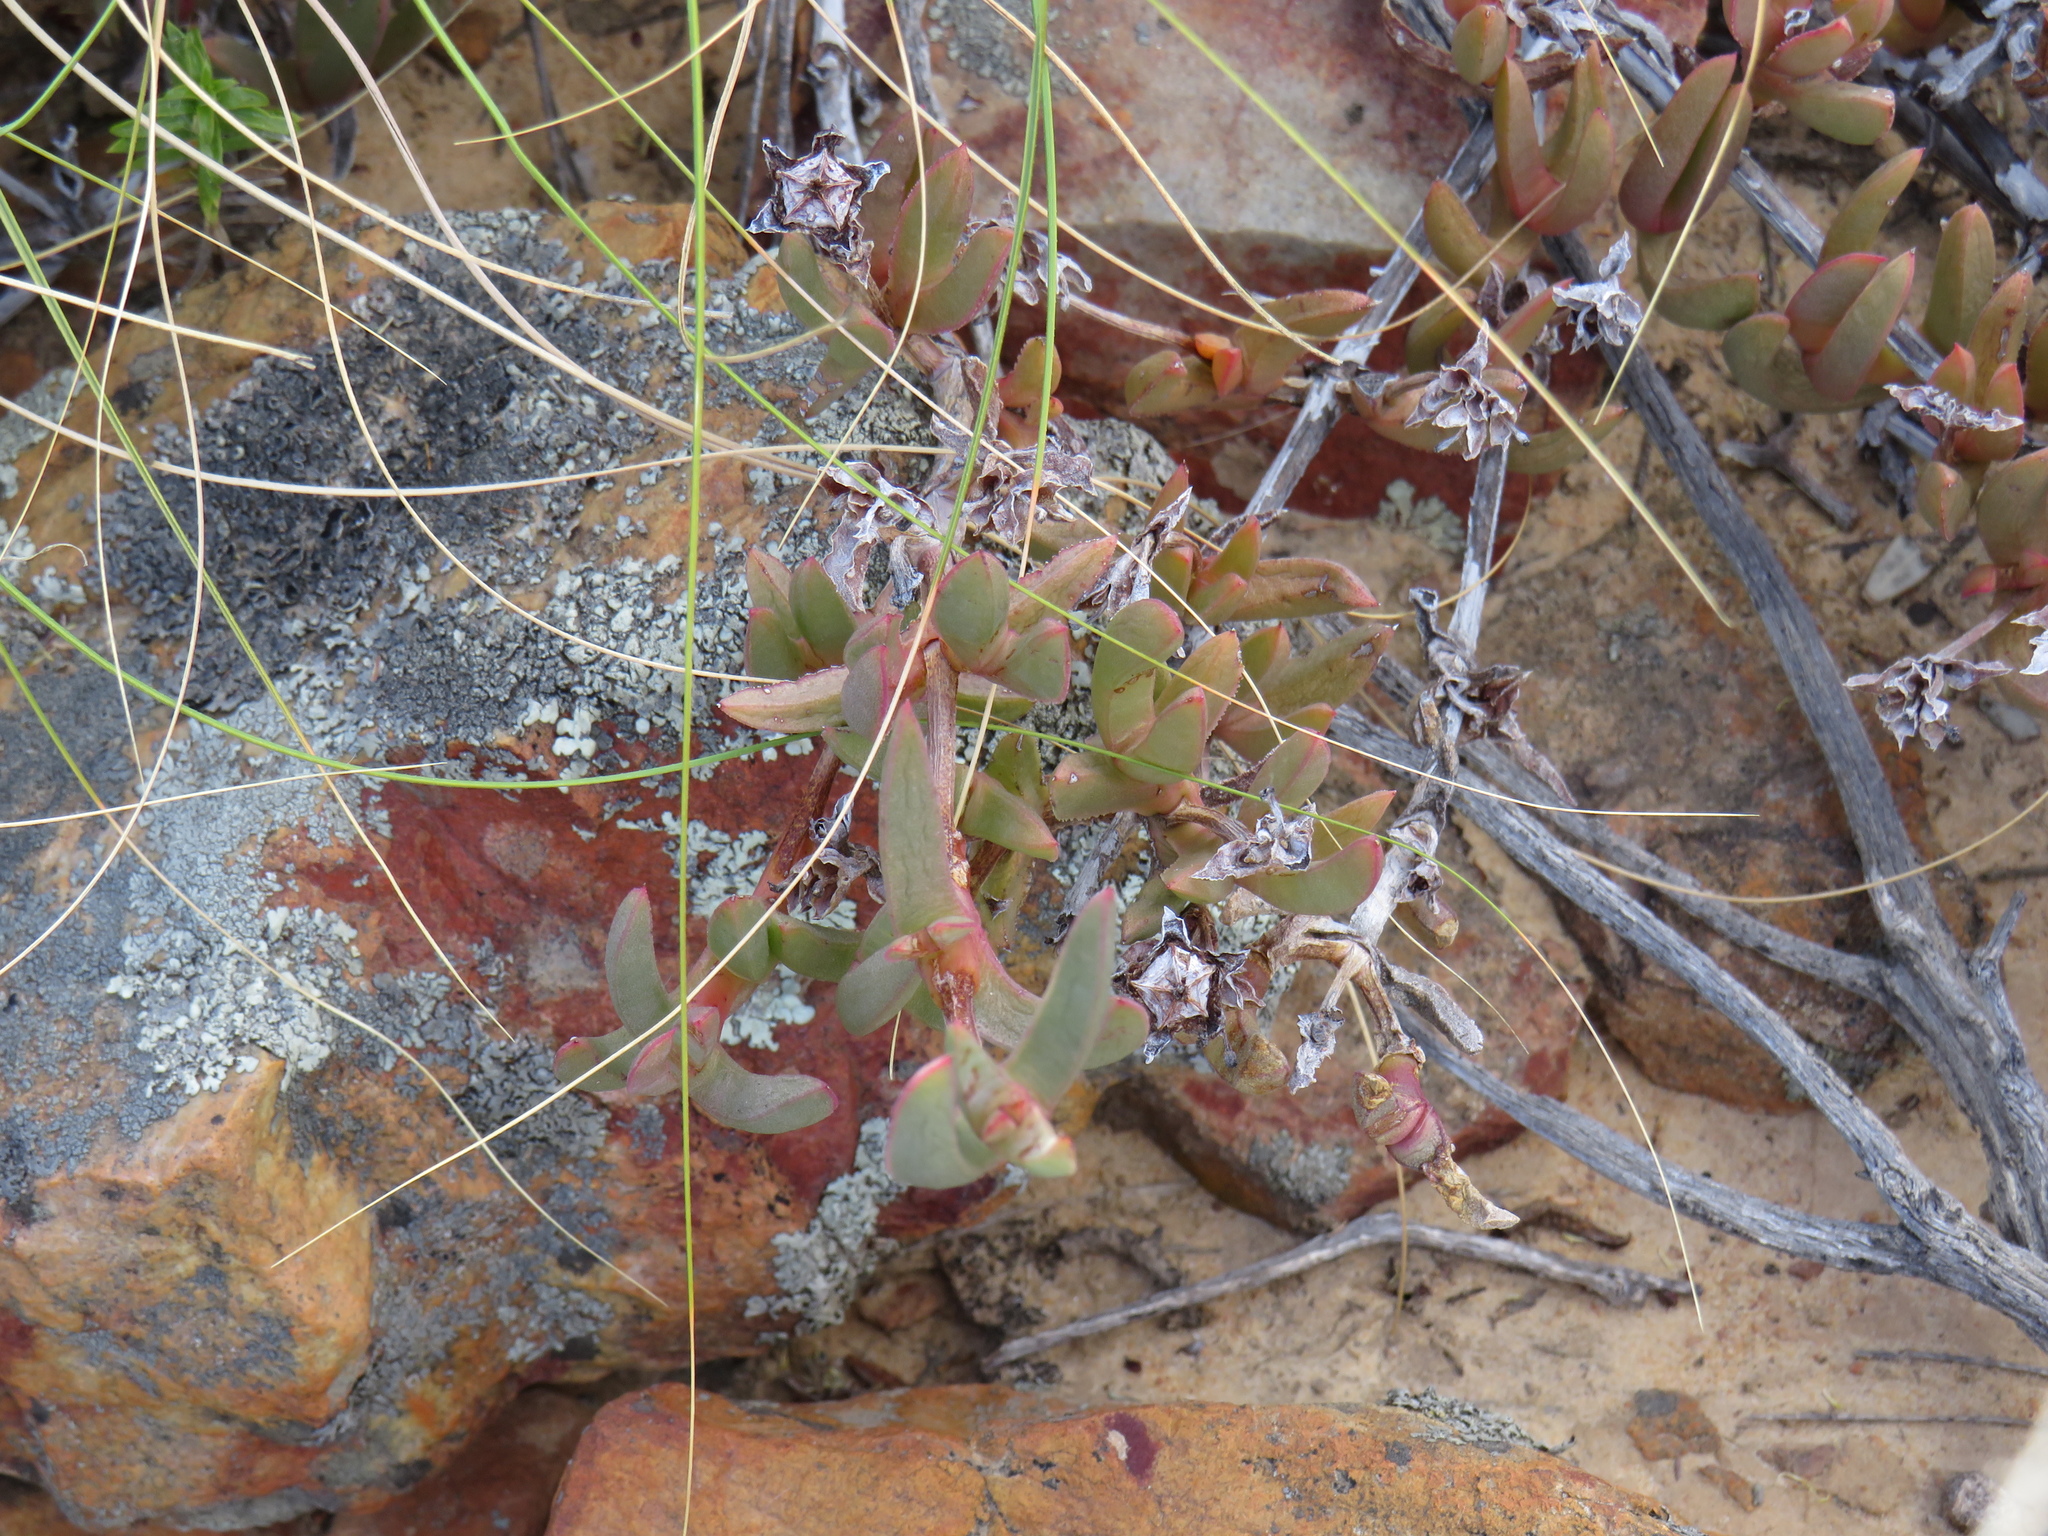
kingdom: Plantae
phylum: Tracheophyta
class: Magnoliopsida
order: Caryophyllales
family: Aizoaceae
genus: Ruschia
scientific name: Ruschia diversifolia
